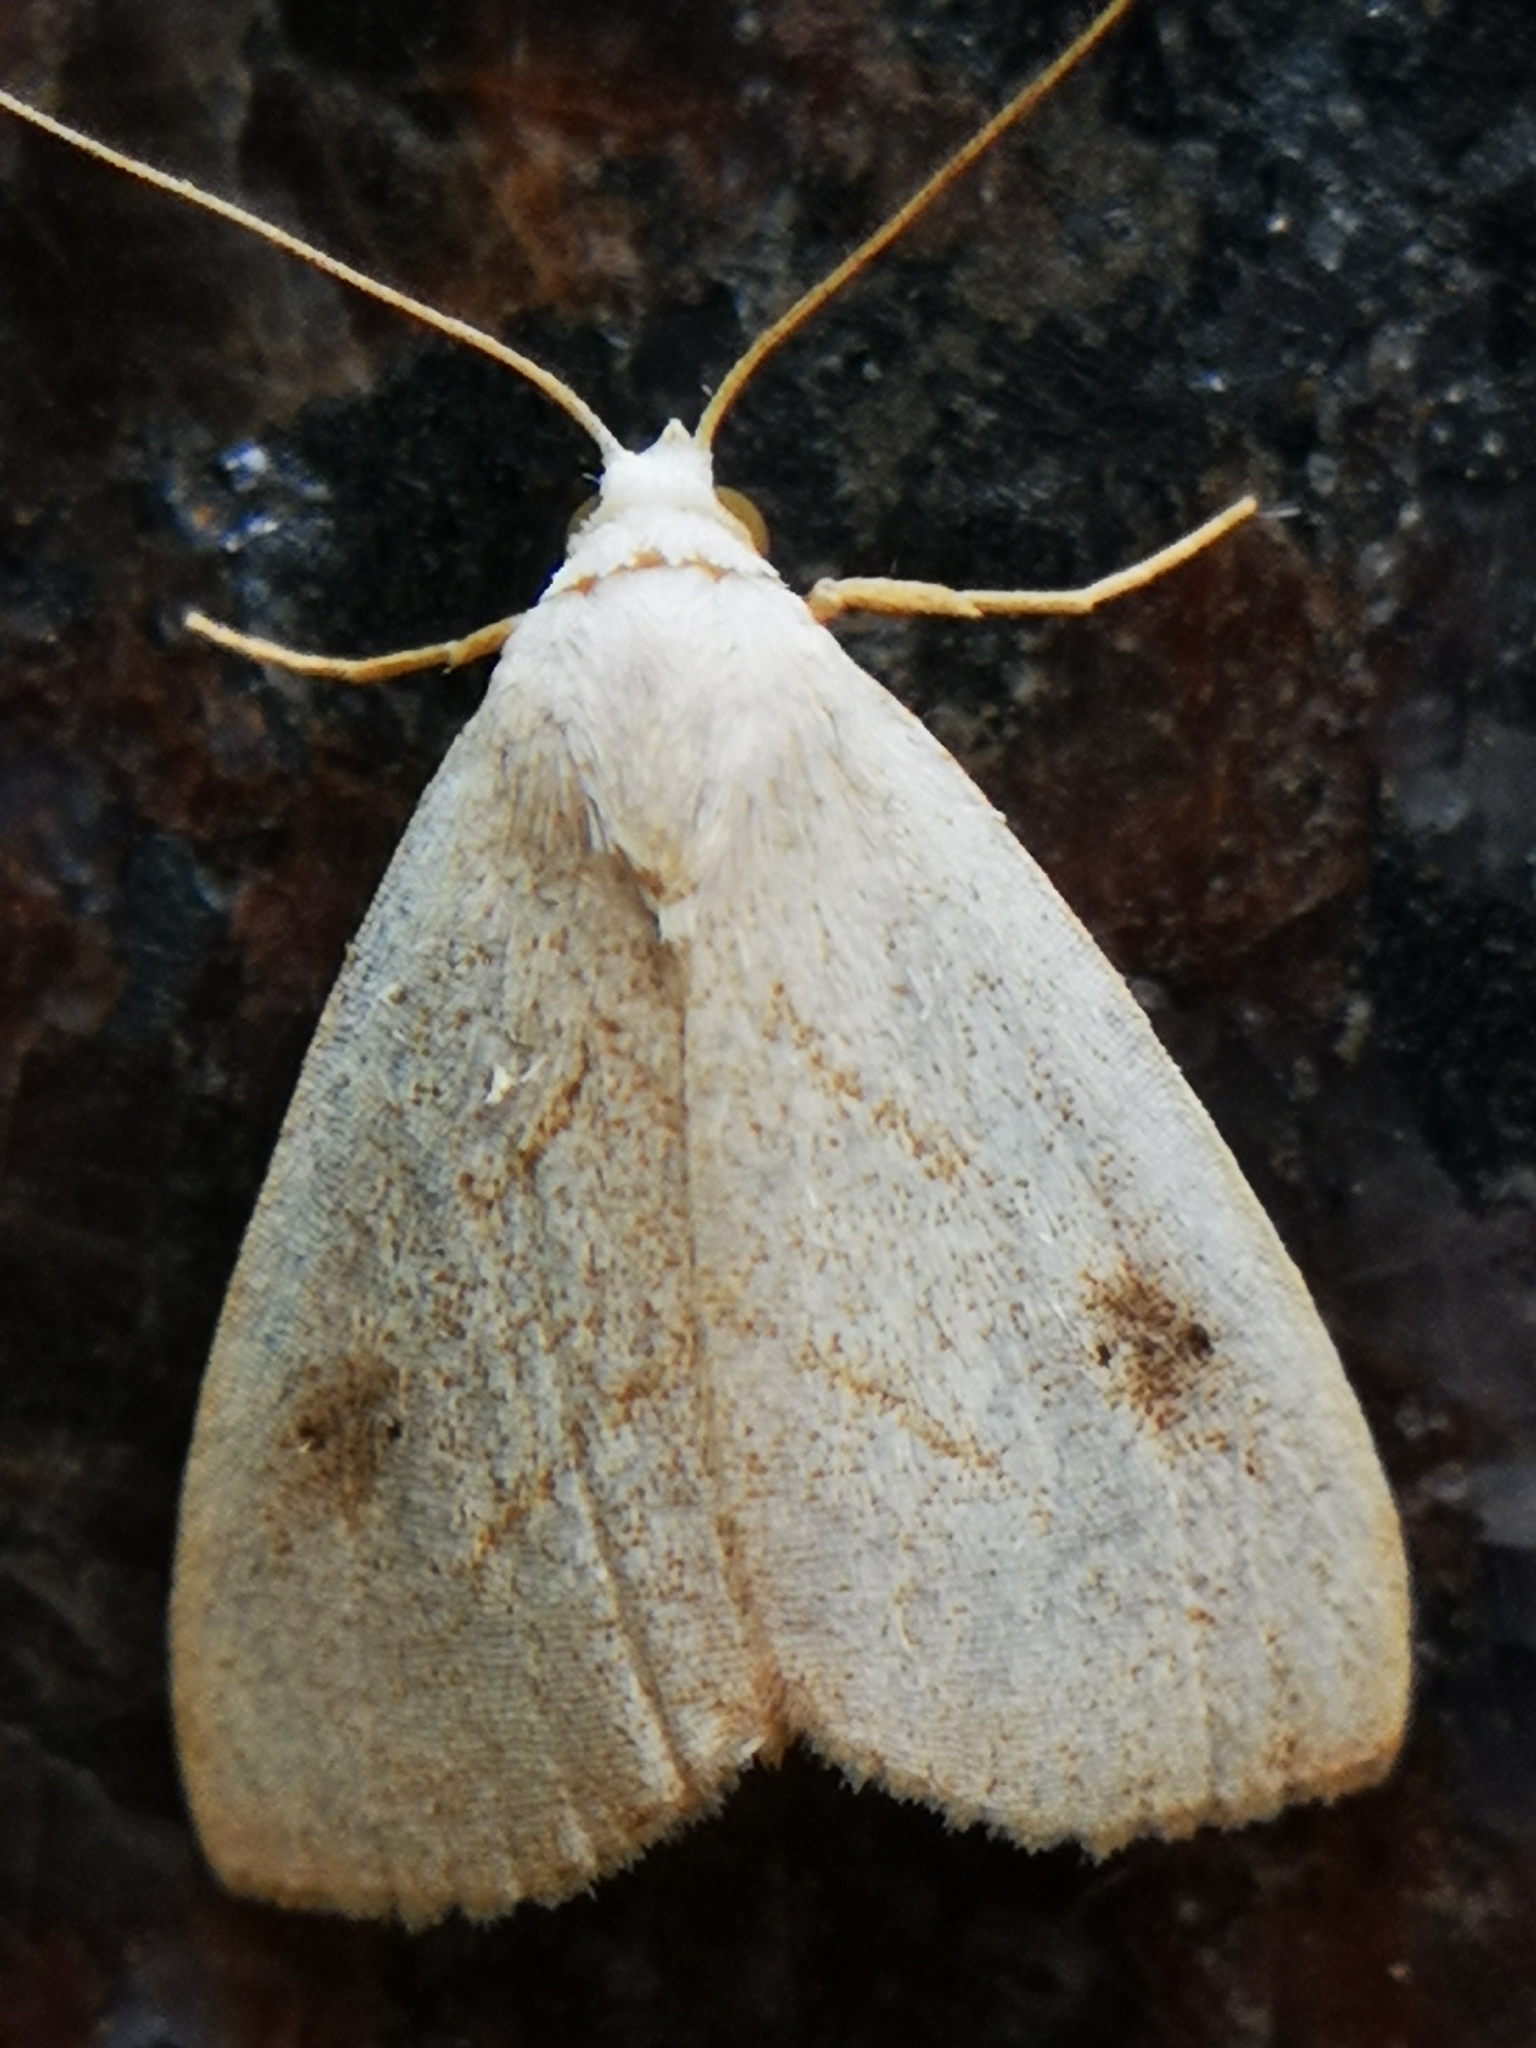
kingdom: Animalia
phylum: Arthropoda
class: Insecta
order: Lepidoptera
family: Erebidae
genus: Rivula
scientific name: Rivula propinqualis
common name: Spotted grass moth
